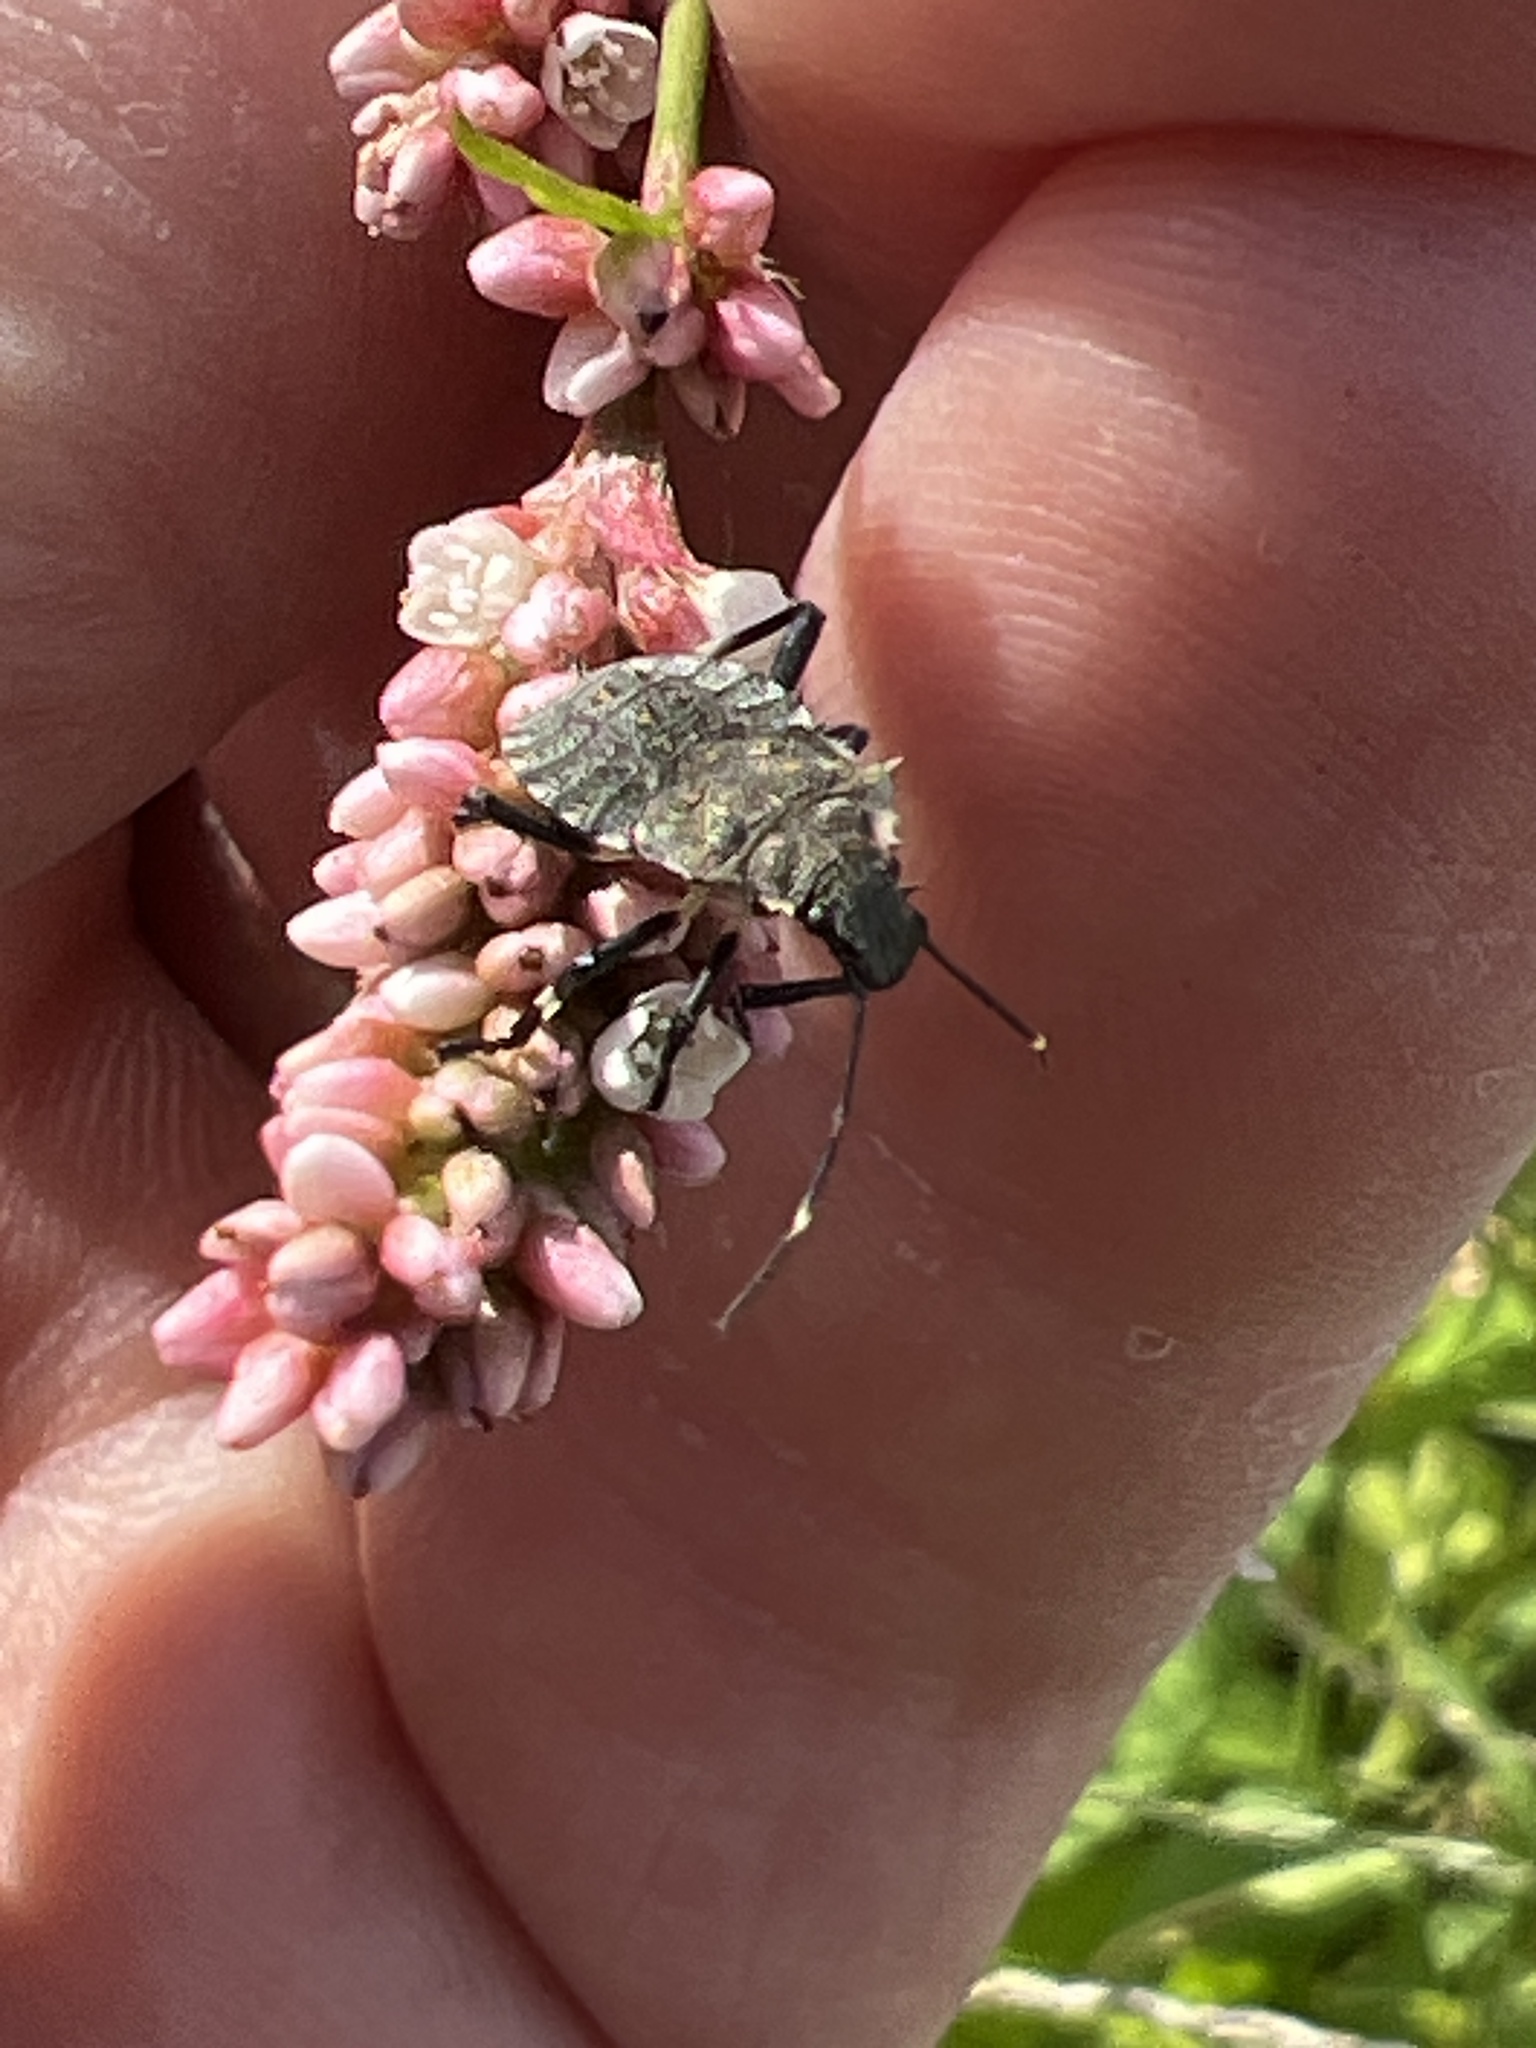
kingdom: Animalia
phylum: Arthropoda
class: Insecta
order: Hemiptera
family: Pentatomidae
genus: Halyomorpha
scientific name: Halyomorpha halys
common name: Brown marmorated stink bug
